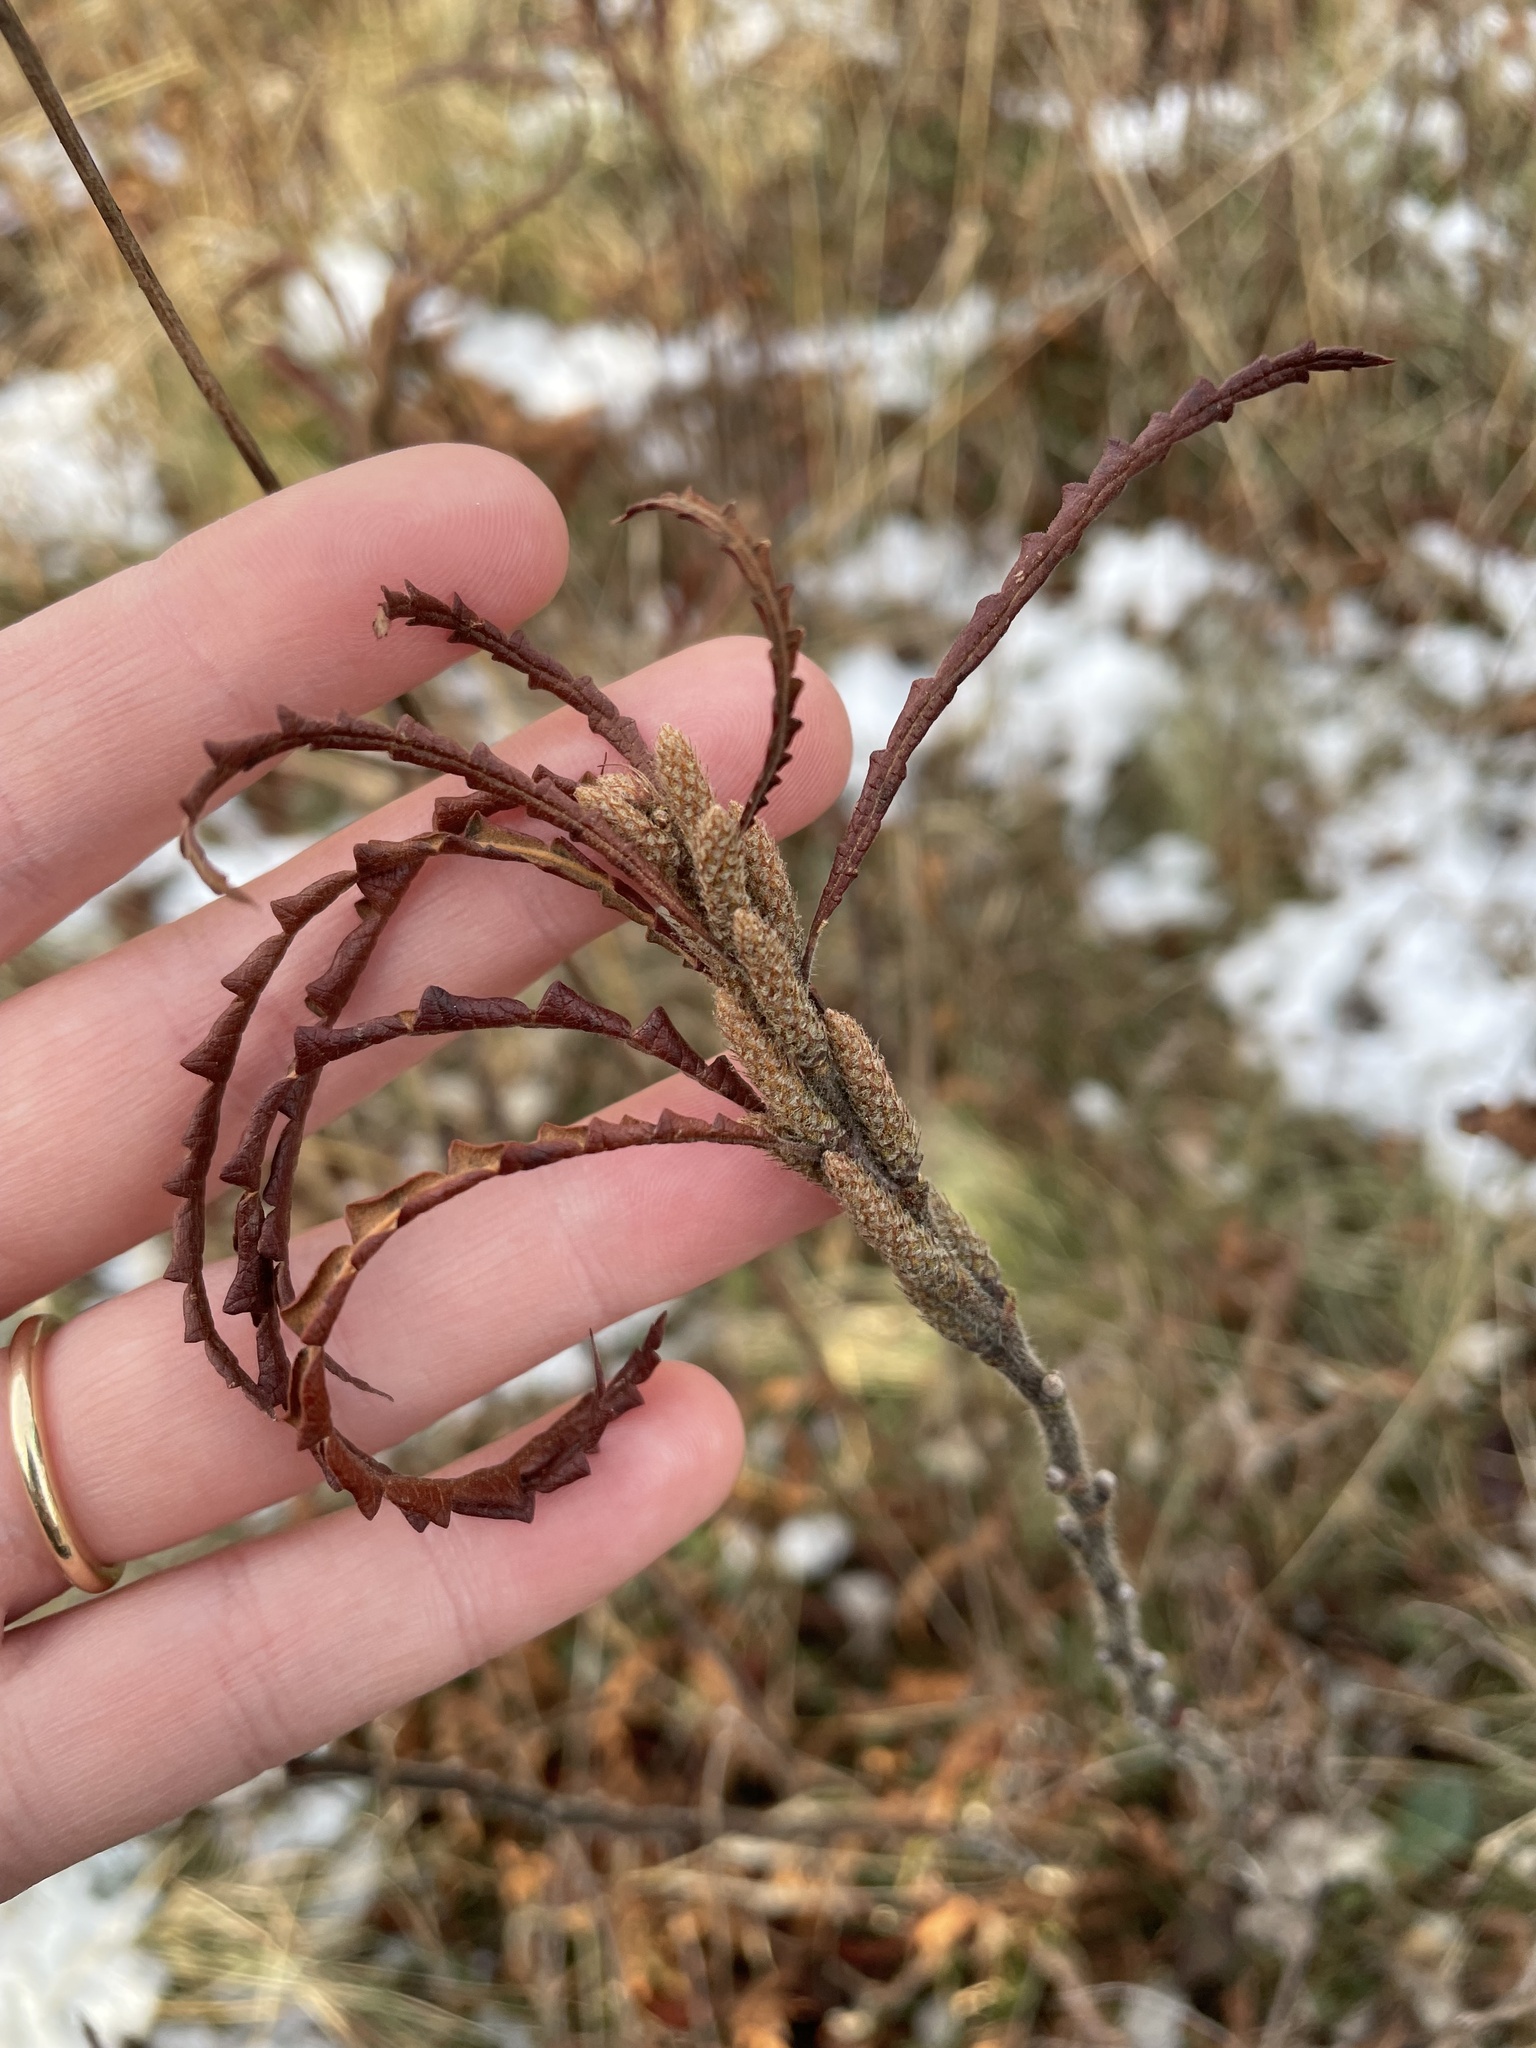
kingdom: Plantae
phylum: Tracheophyta
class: Magnoliopsida
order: Fagales
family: Myricaceae
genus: Comptonia
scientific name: Comptonia peregrina
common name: Sweet-fern
